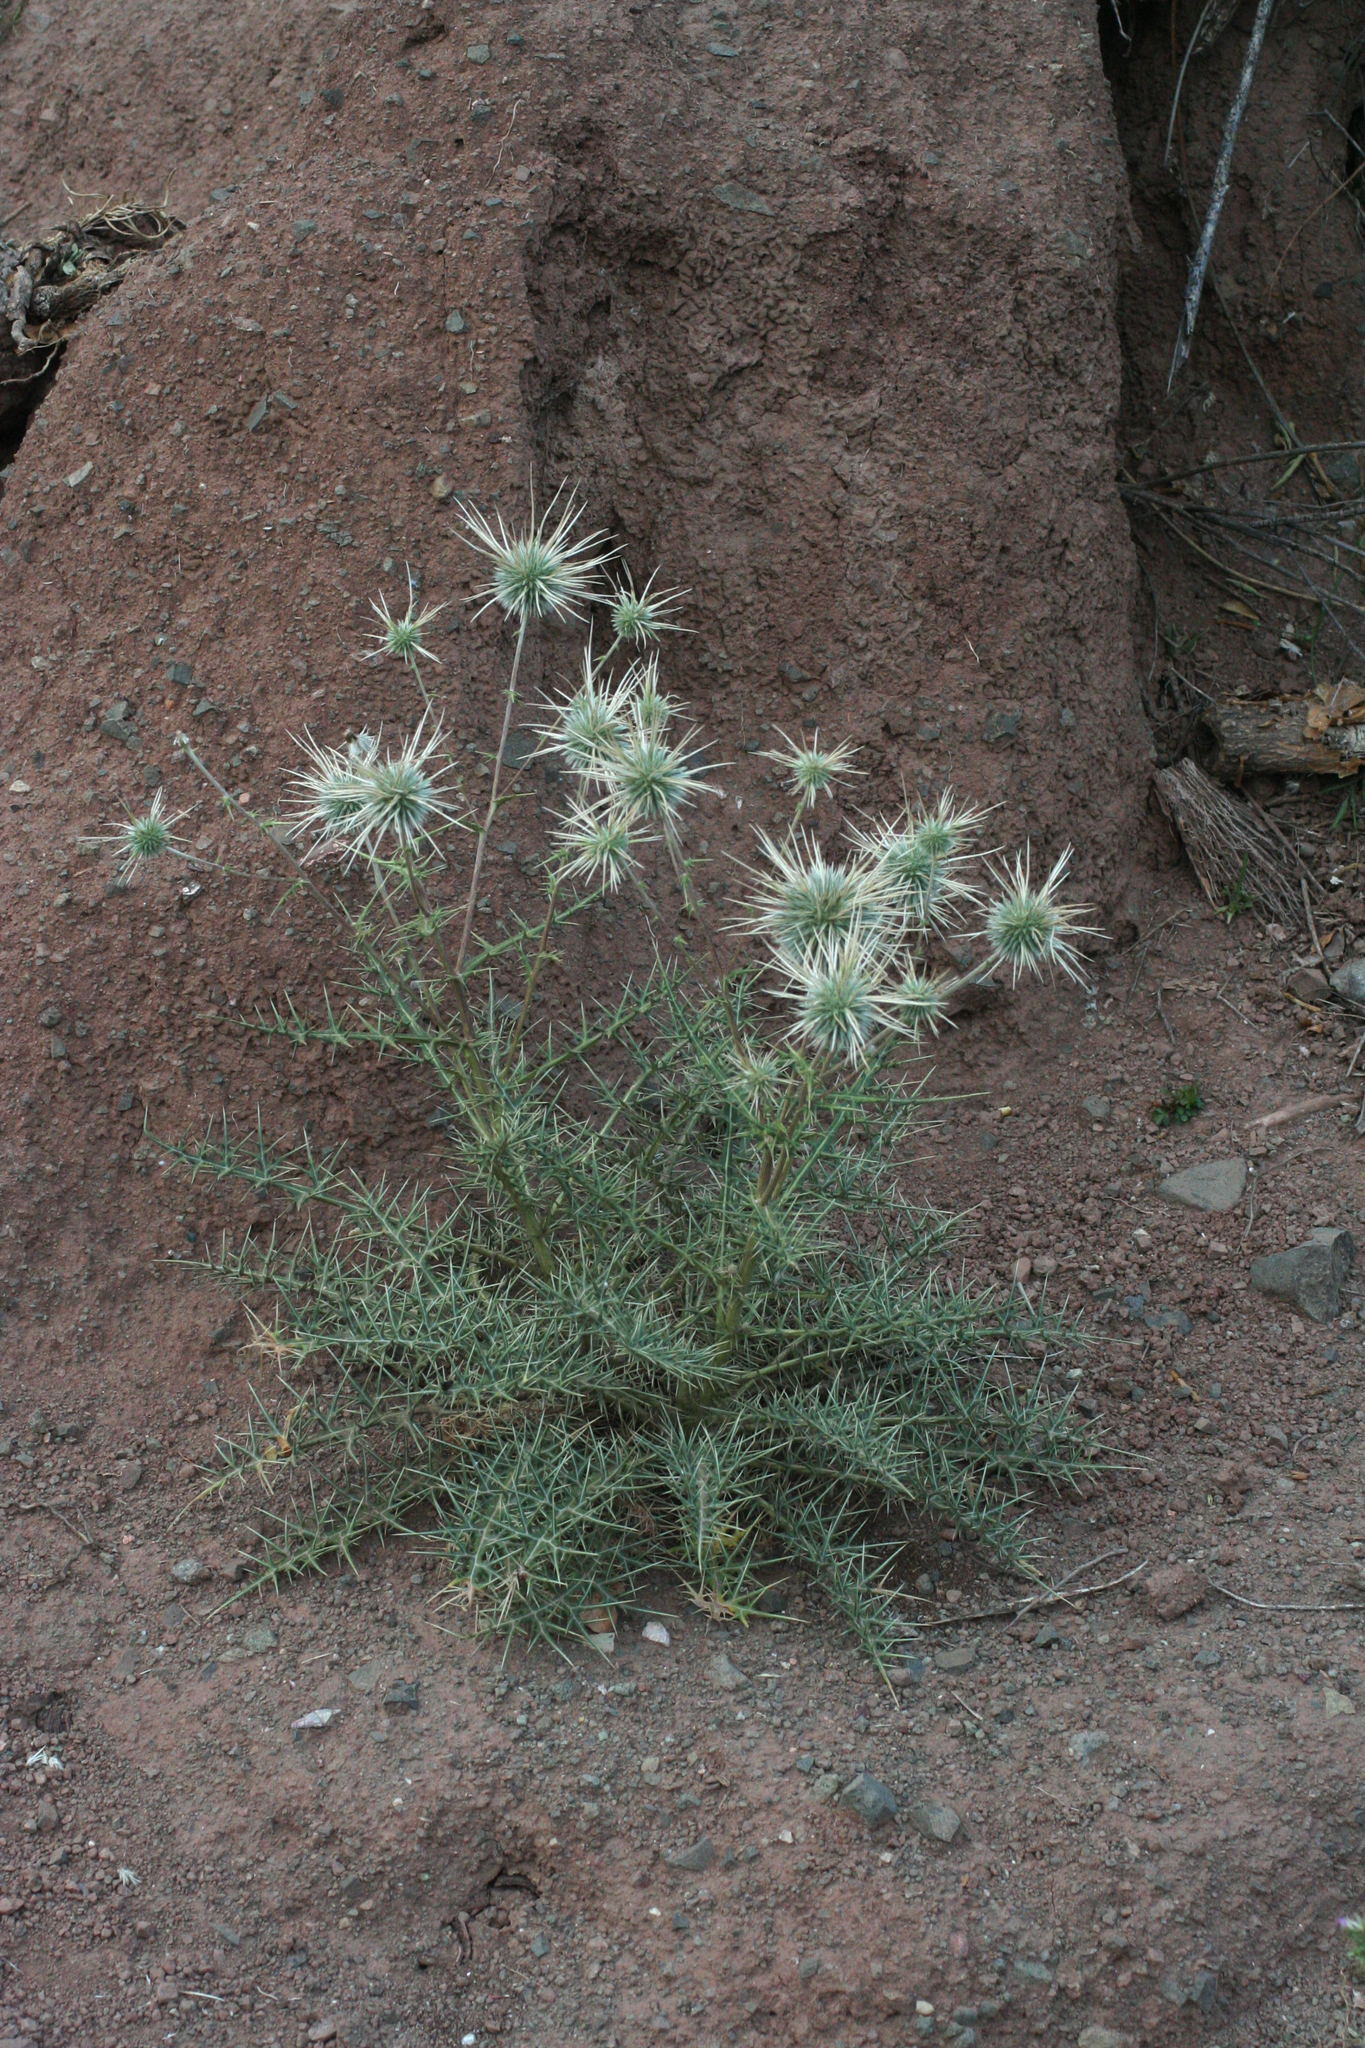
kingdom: Plantae
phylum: Tracheophyta
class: Magnoliopsida
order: Asterales
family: Asteraceae
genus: Echinops
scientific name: Echinops
